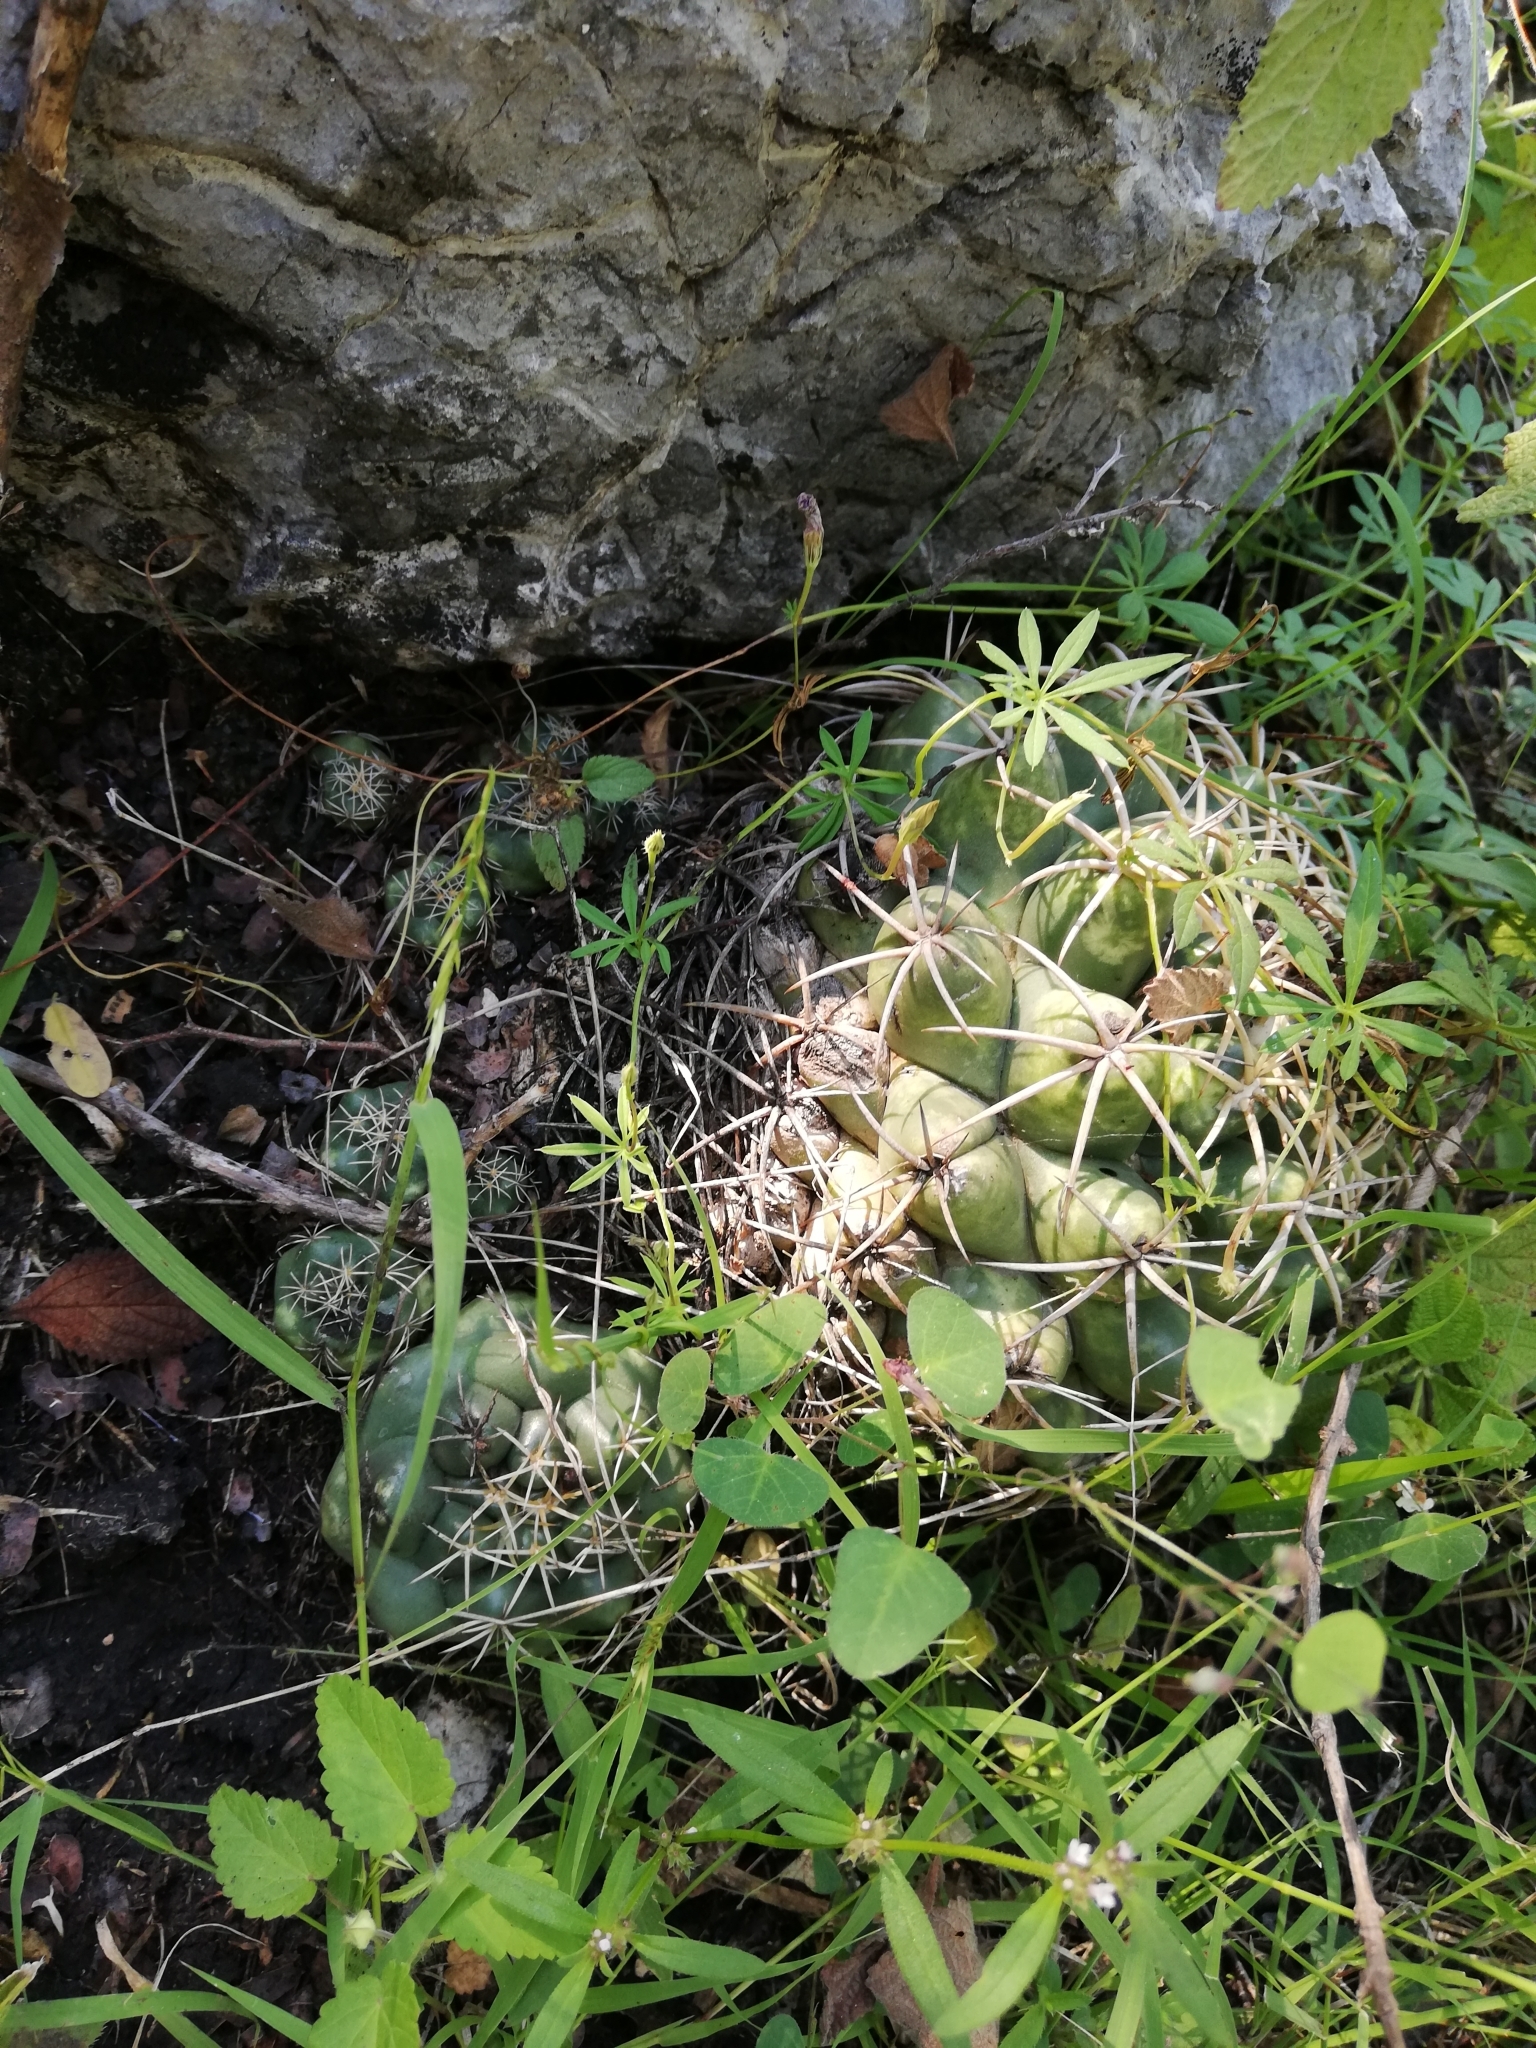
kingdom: Plantae
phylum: Tracheophyta
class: Magnoliopsida
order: Caryophyllales
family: Cactaceae
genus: Coryphantha
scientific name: Coryphantha elephantidens
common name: Elephant's tooth
